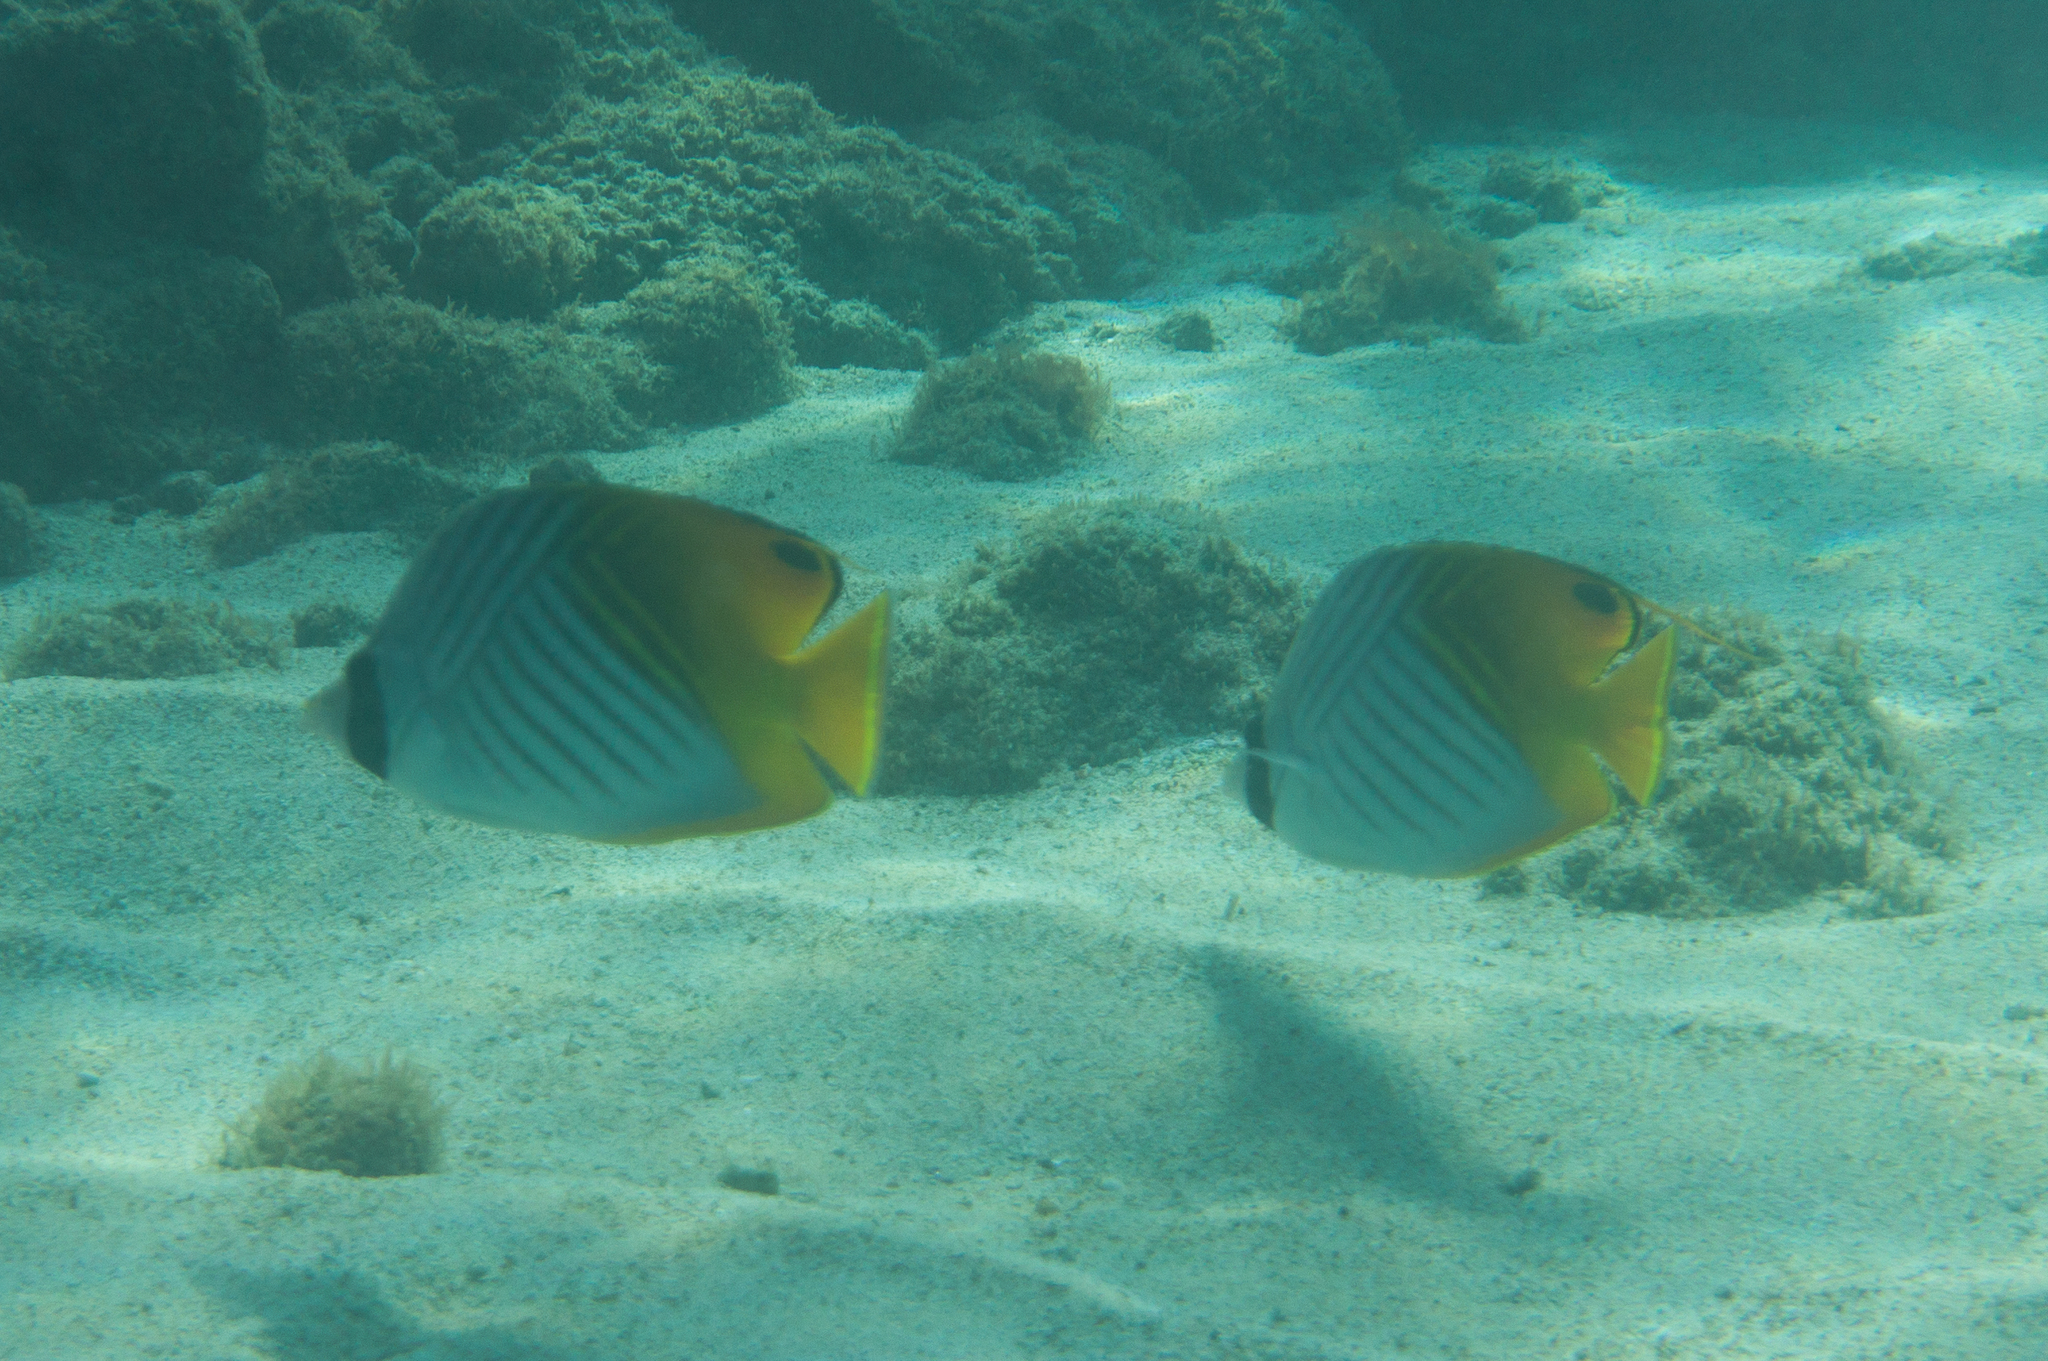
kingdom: Animalia
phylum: Chordata
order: Perciformes
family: Chaetodontidae
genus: Chaetodon
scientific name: Chaetodon auriga
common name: Threadfin butterflyfish
